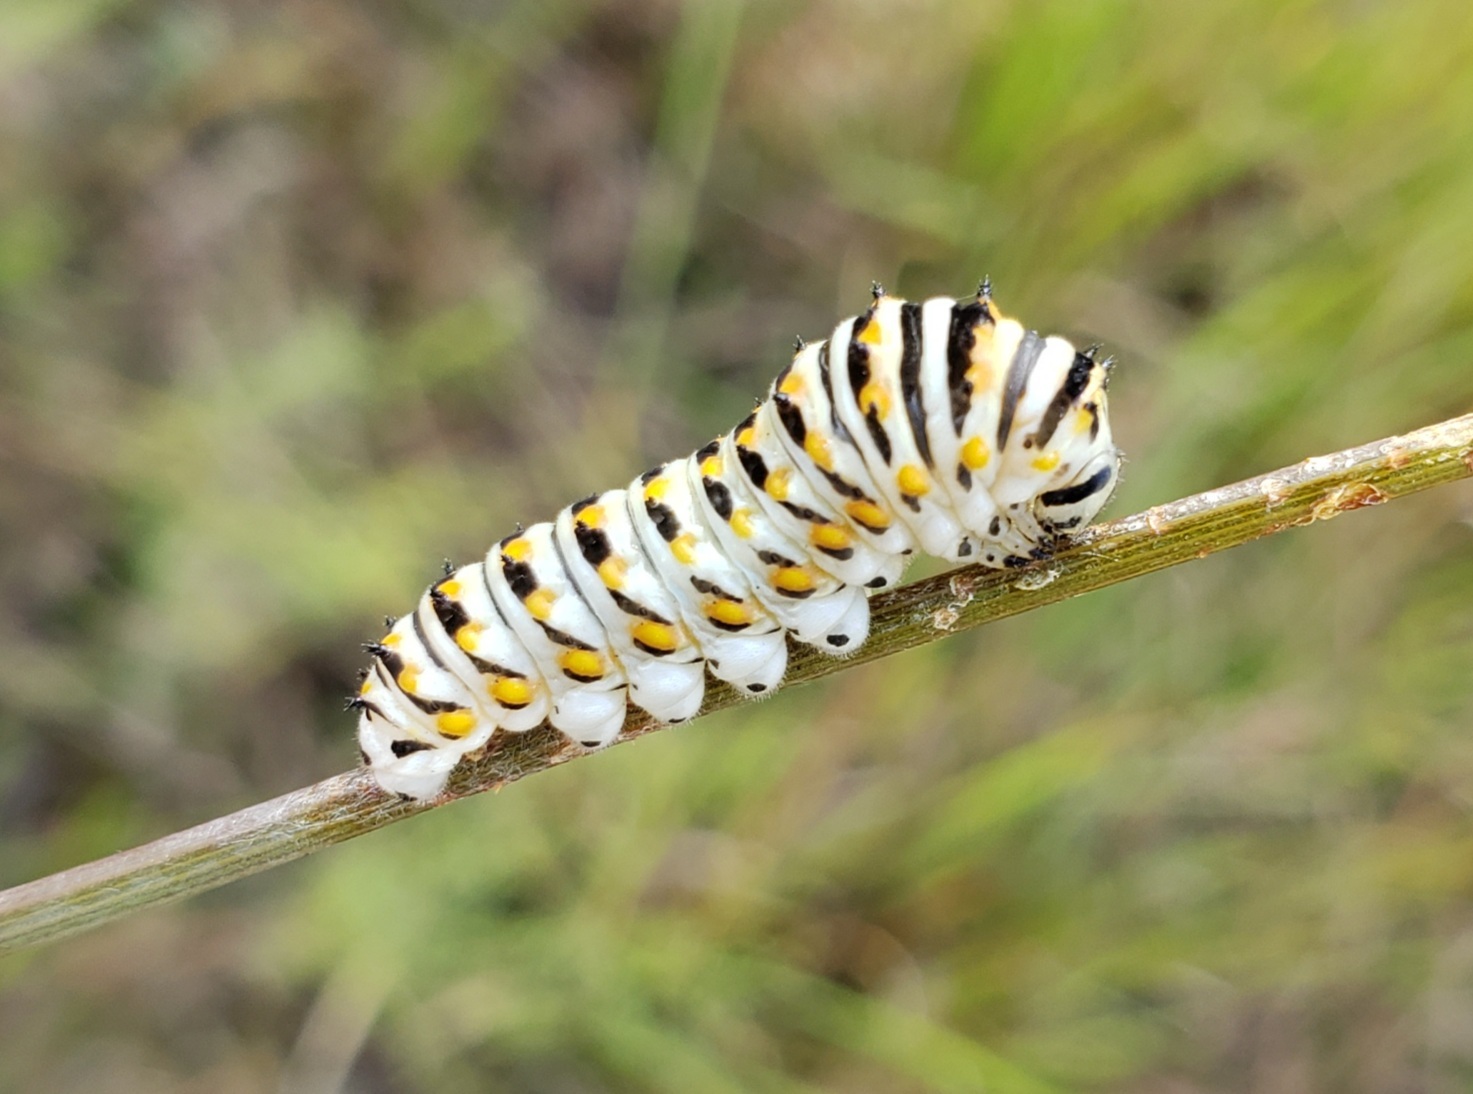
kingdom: Animalia
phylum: Arthropoda
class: Insecta
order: Lepidoptera
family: Papilionidae
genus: Papilio
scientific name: Papilio polyxenes
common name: Black swallowtail
